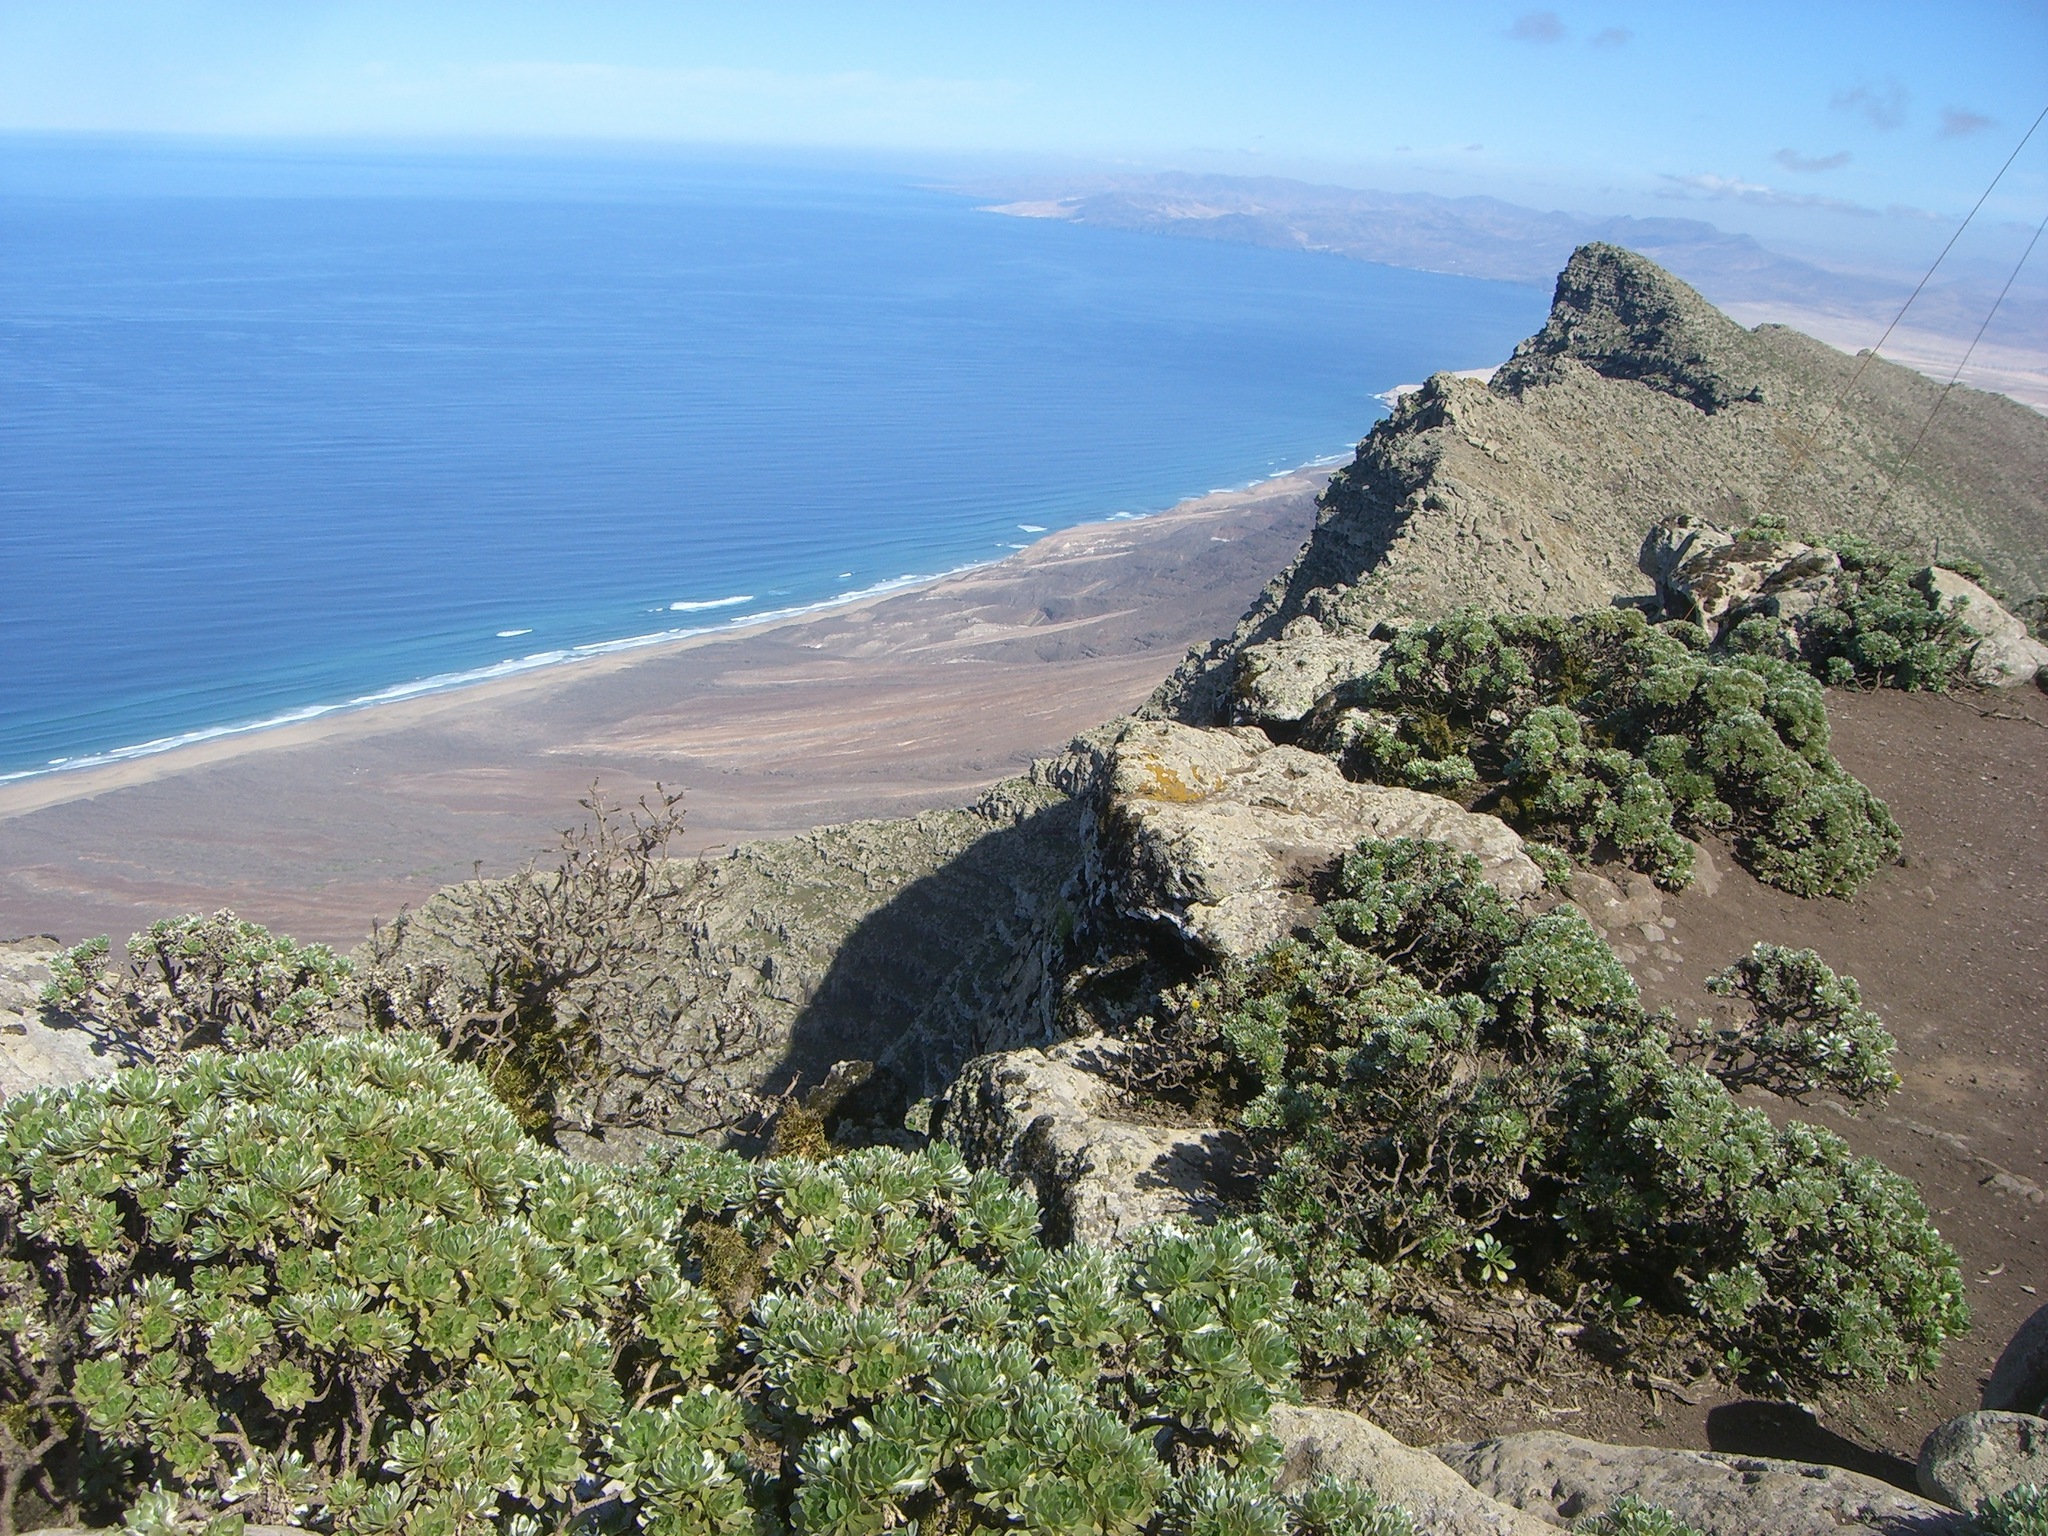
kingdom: Plantae
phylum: Tracheophyta
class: Magnoliopsida
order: Asterales
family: Asteraceae
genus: Asteriscus
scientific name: Asteriscus sericeus
